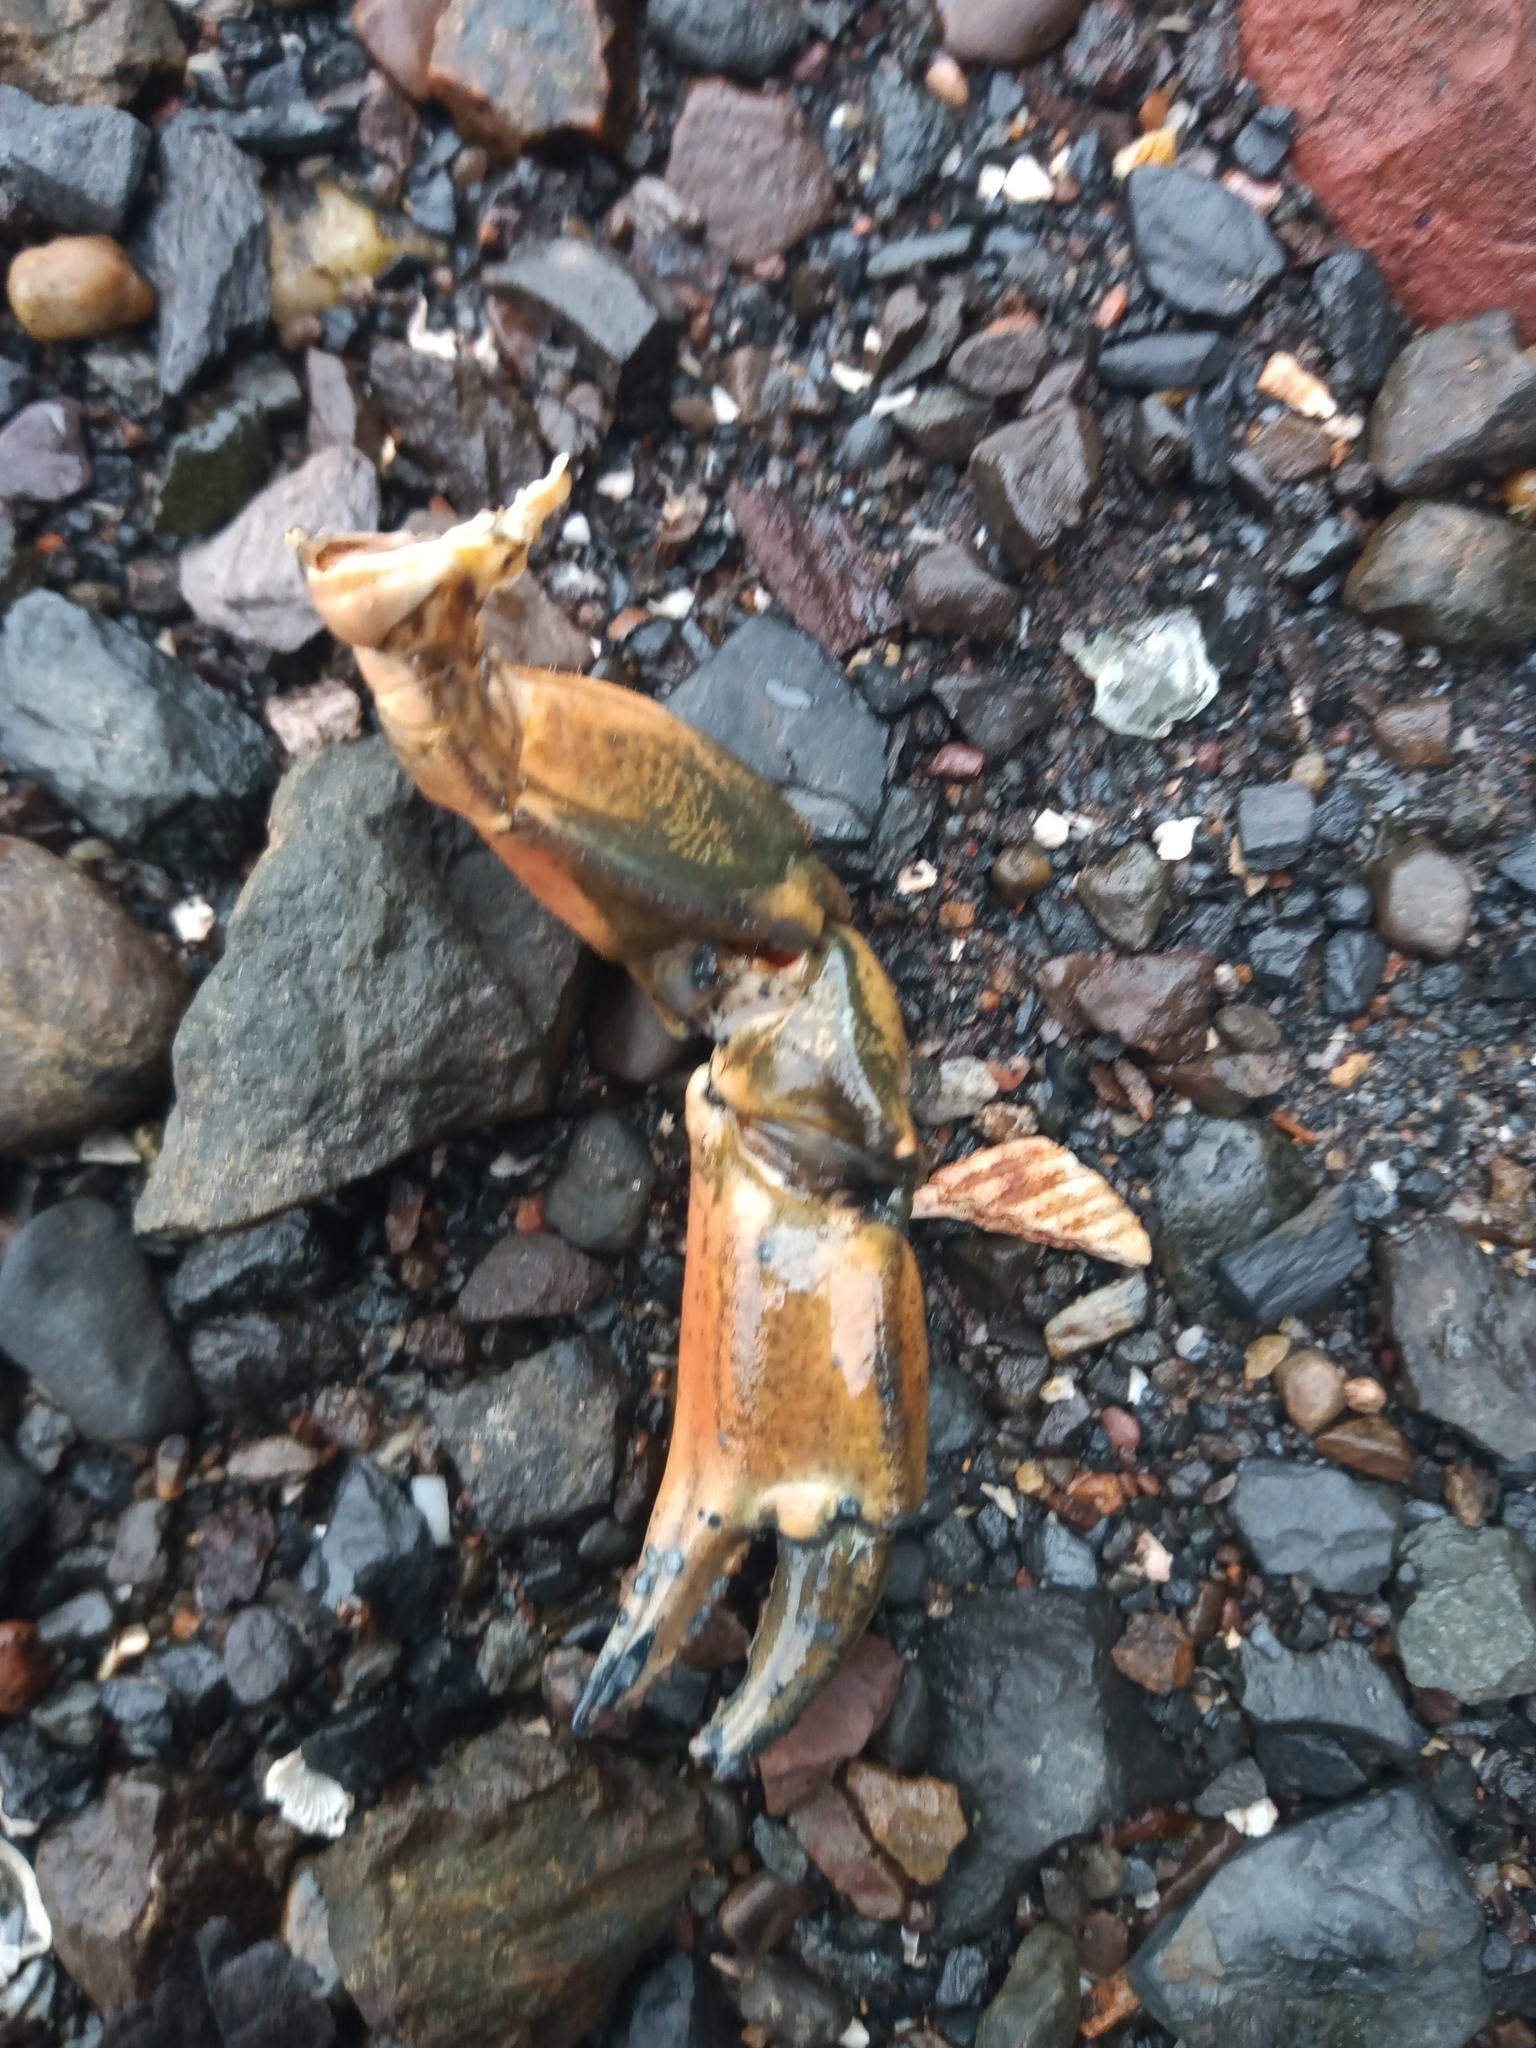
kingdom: Animalia
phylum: Arthropoda
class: Malacostraca
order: Decapoda
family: Carcinidae
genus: Carcinus
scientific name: Carcinus maenas
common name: European green crab
